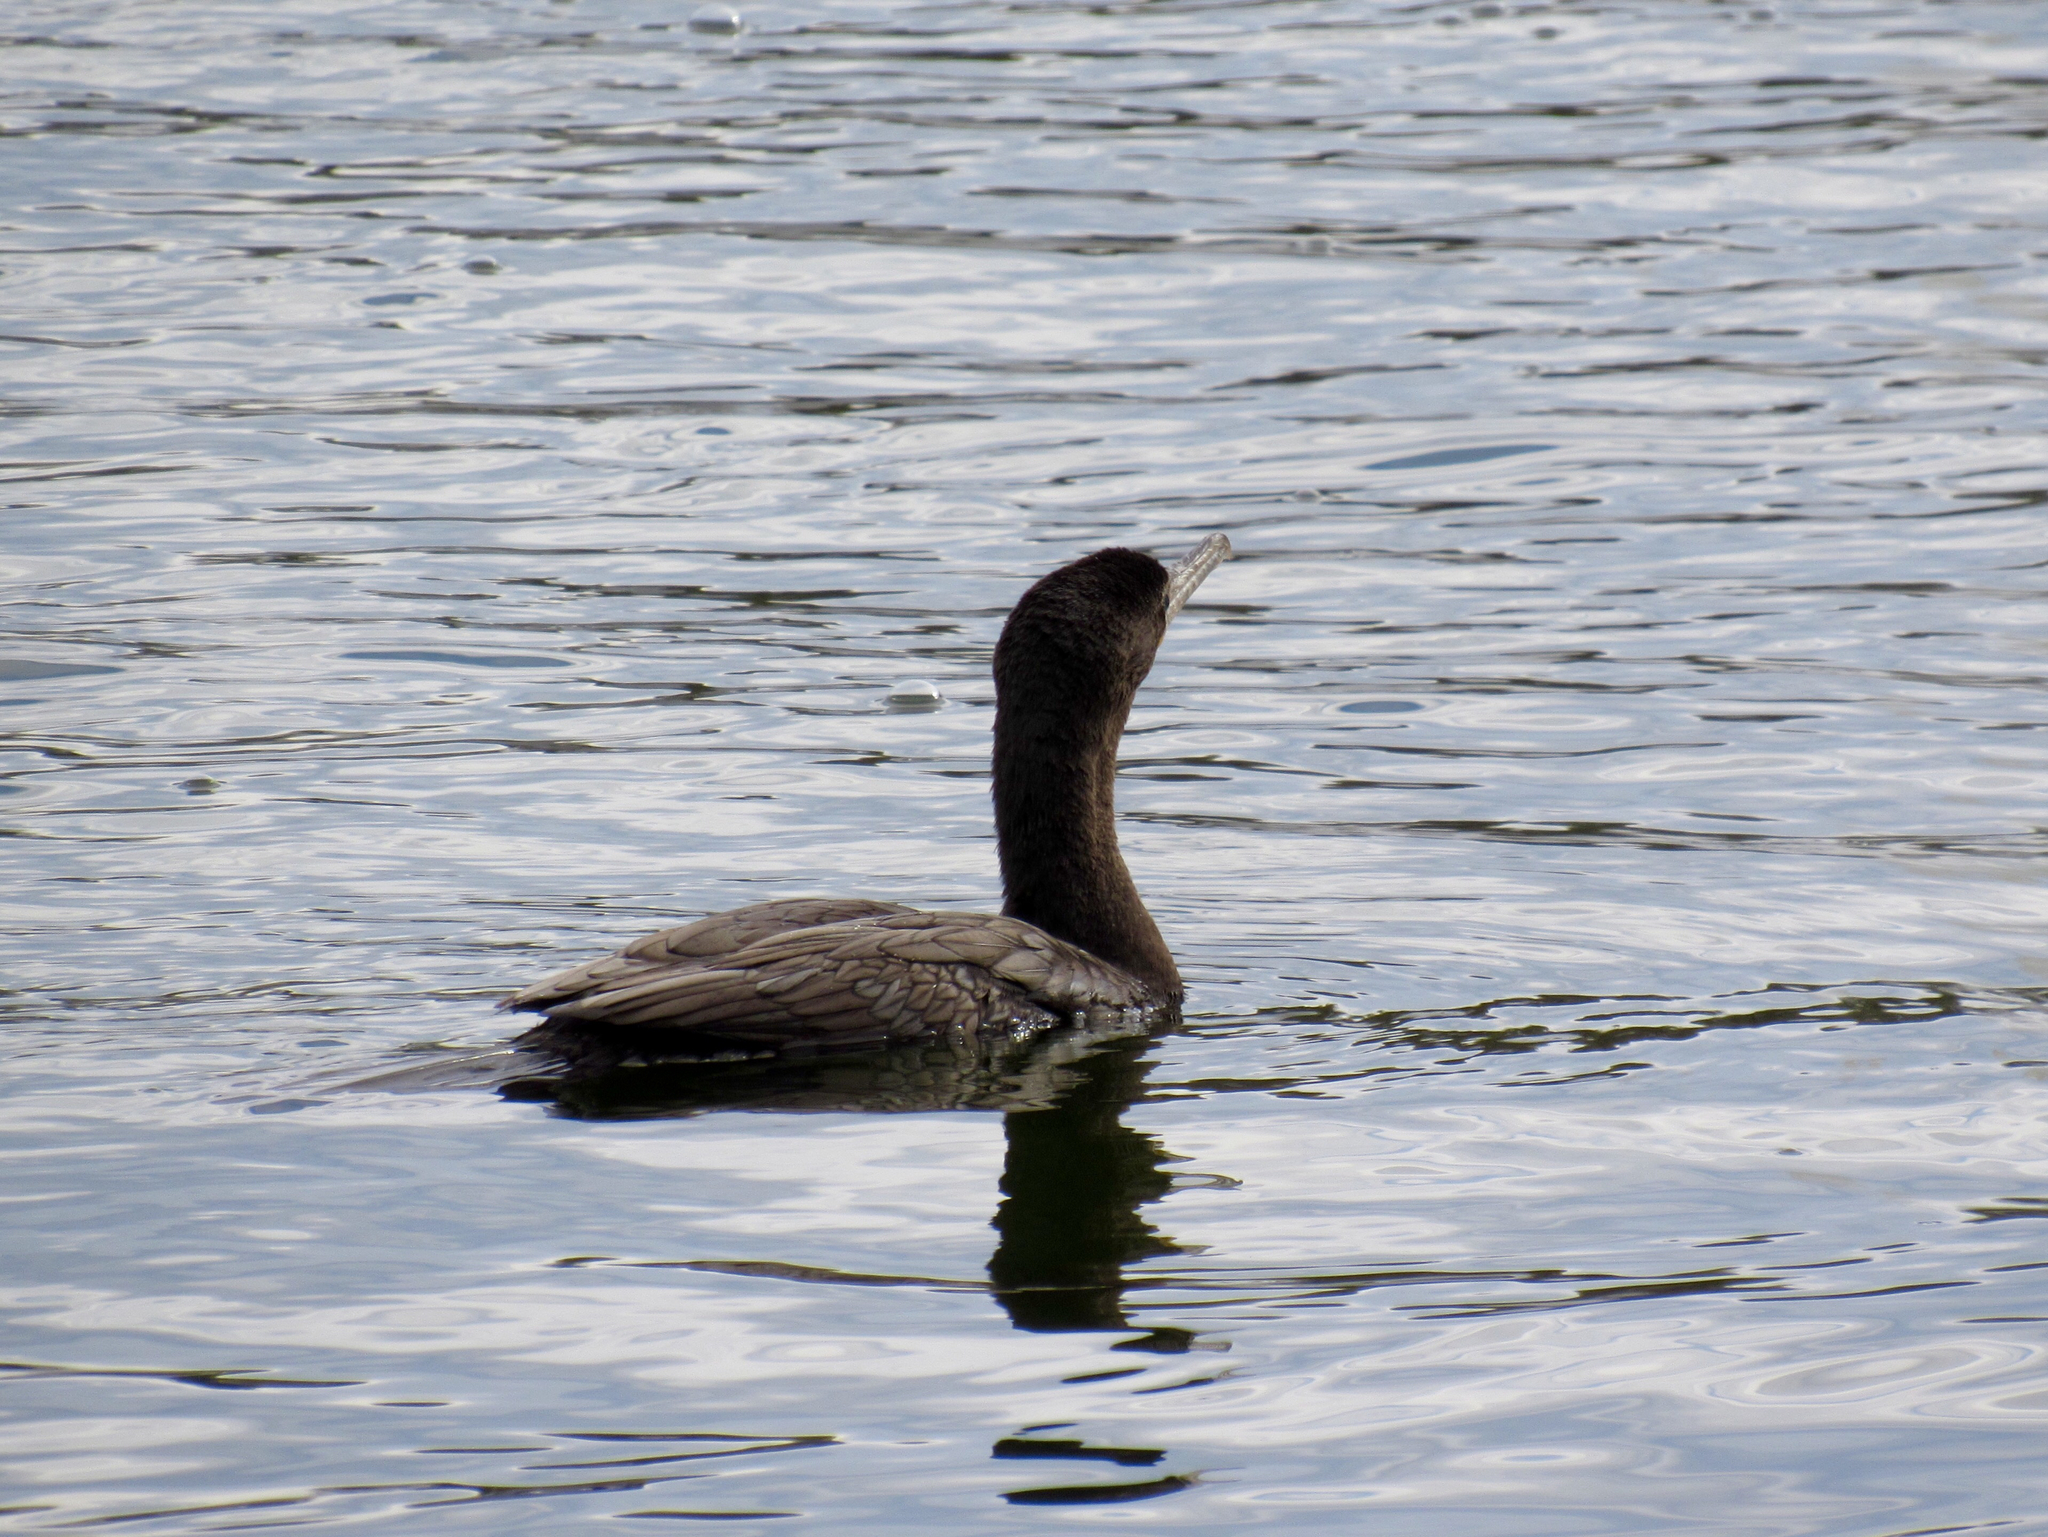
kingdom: Animalia
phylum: Chordata
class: Aves
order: Suliformes
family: Phalacrocoracidae
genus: Phalacrocorax
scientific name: Phalacrocorax brasilianus
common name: Neotropic cormorant
